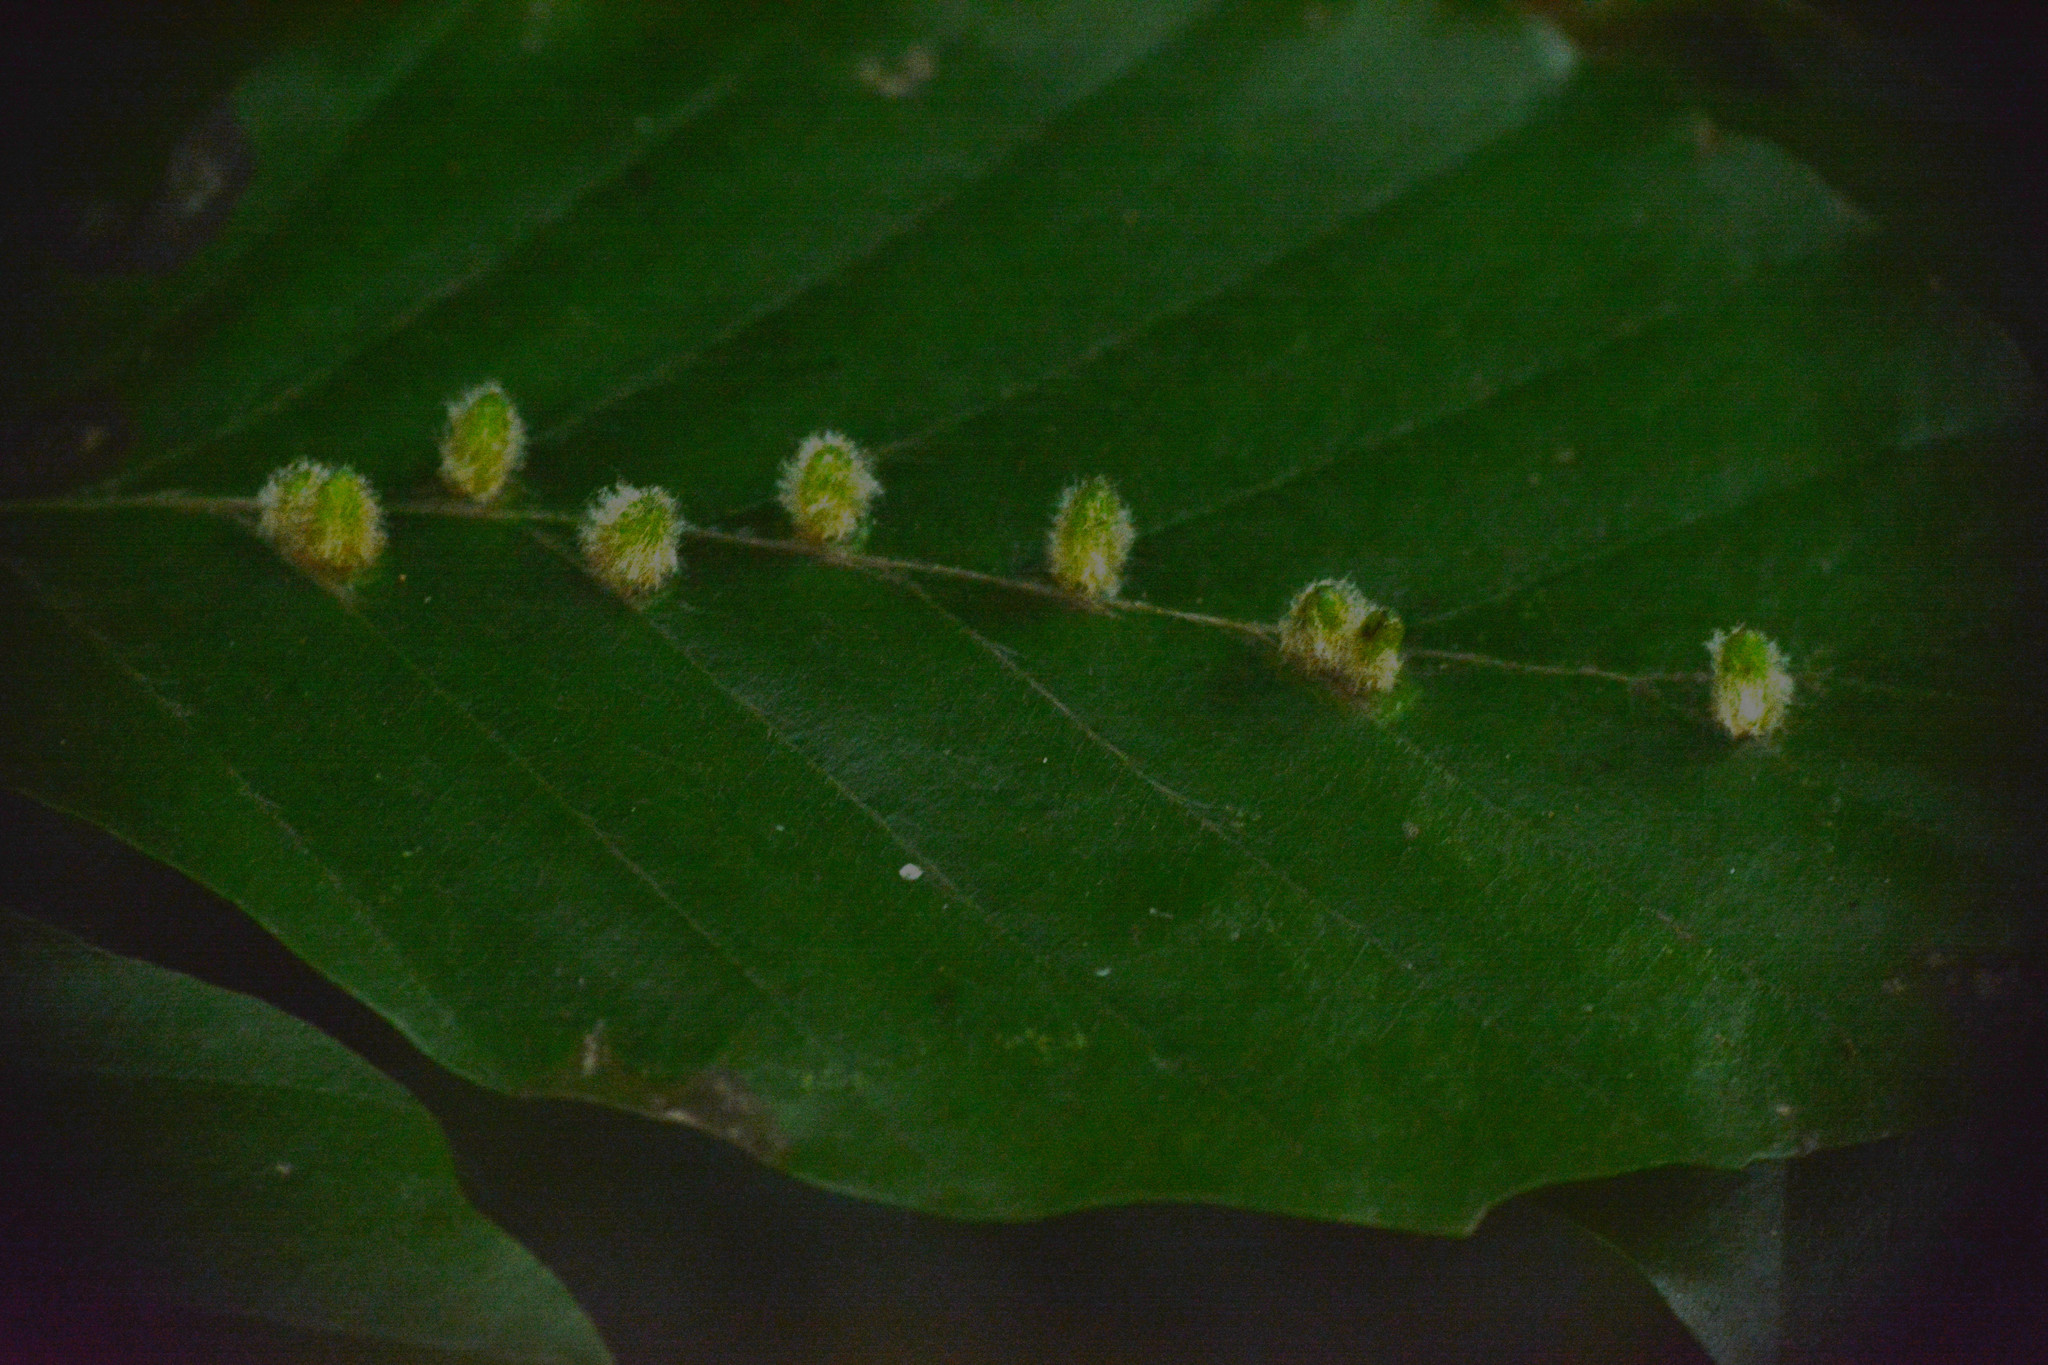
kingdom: Animalia
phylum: Arthropoda
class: Insecta
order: Diptera
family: Cecidomyiidae
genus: Hartigiola
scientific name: Hartigiola annulipes
